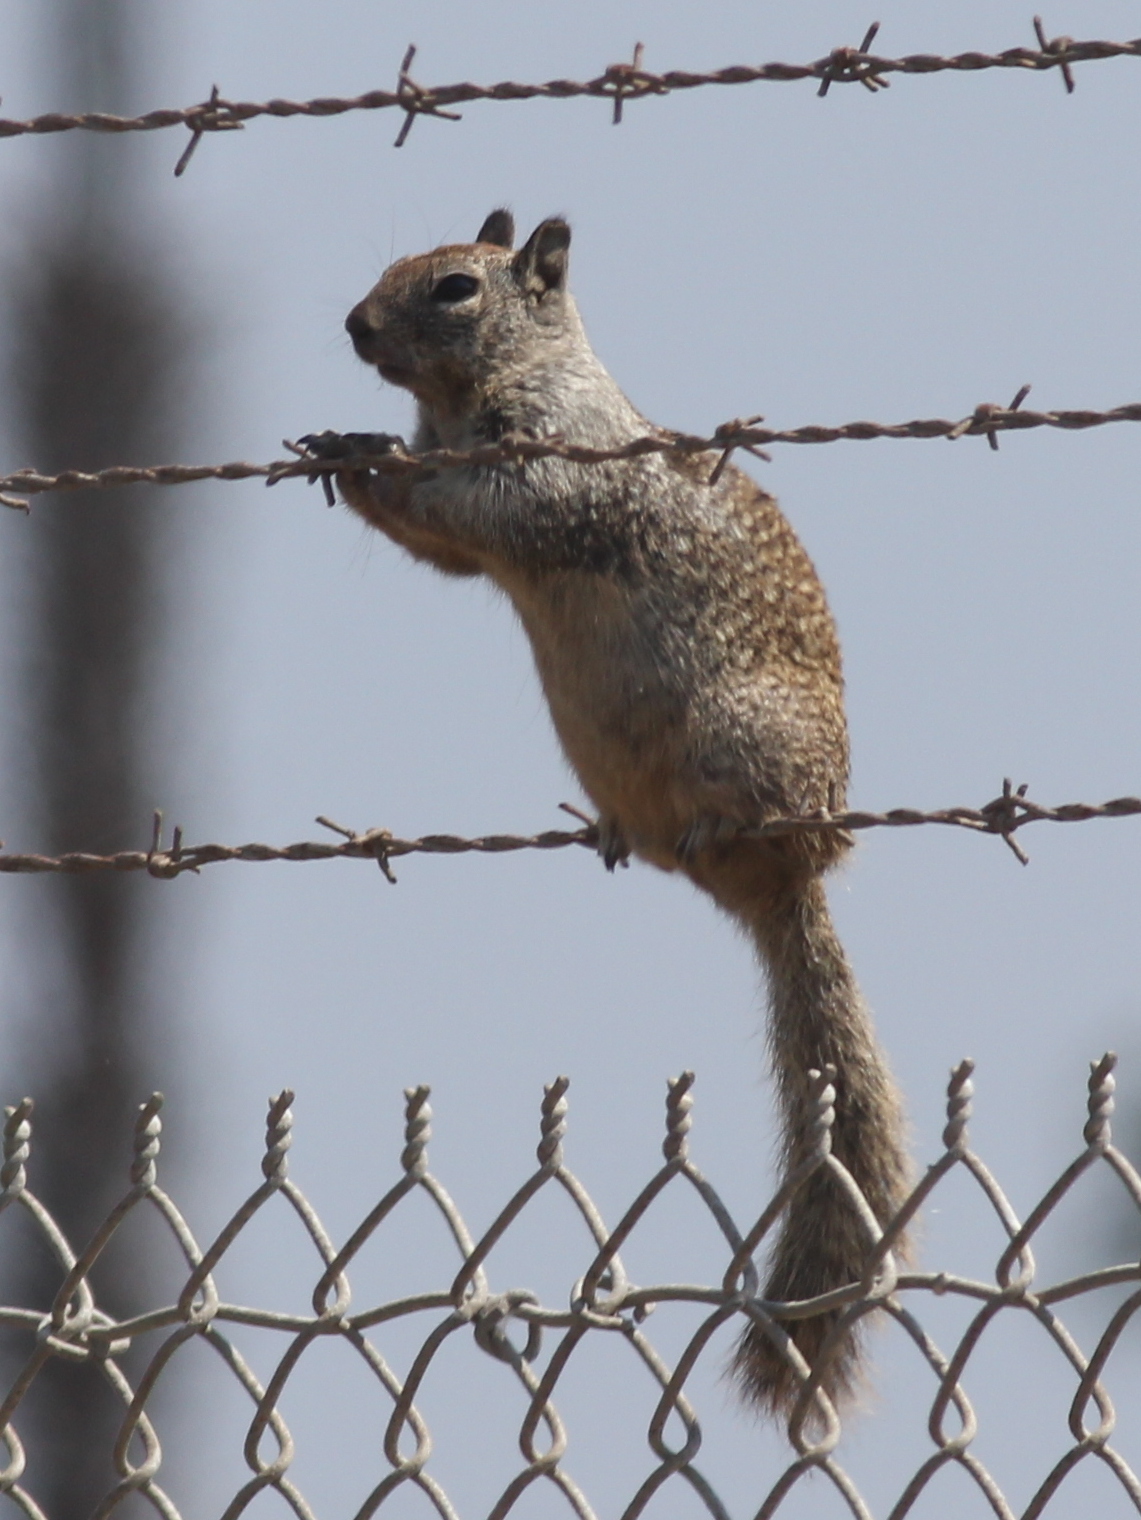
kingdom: Animalia
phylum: Chordata
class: Mammalia
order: Rodentia
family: Sciuridae
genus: Otospermophilus
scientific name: Otospermophilus beecheyi
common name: California ground squirrel
